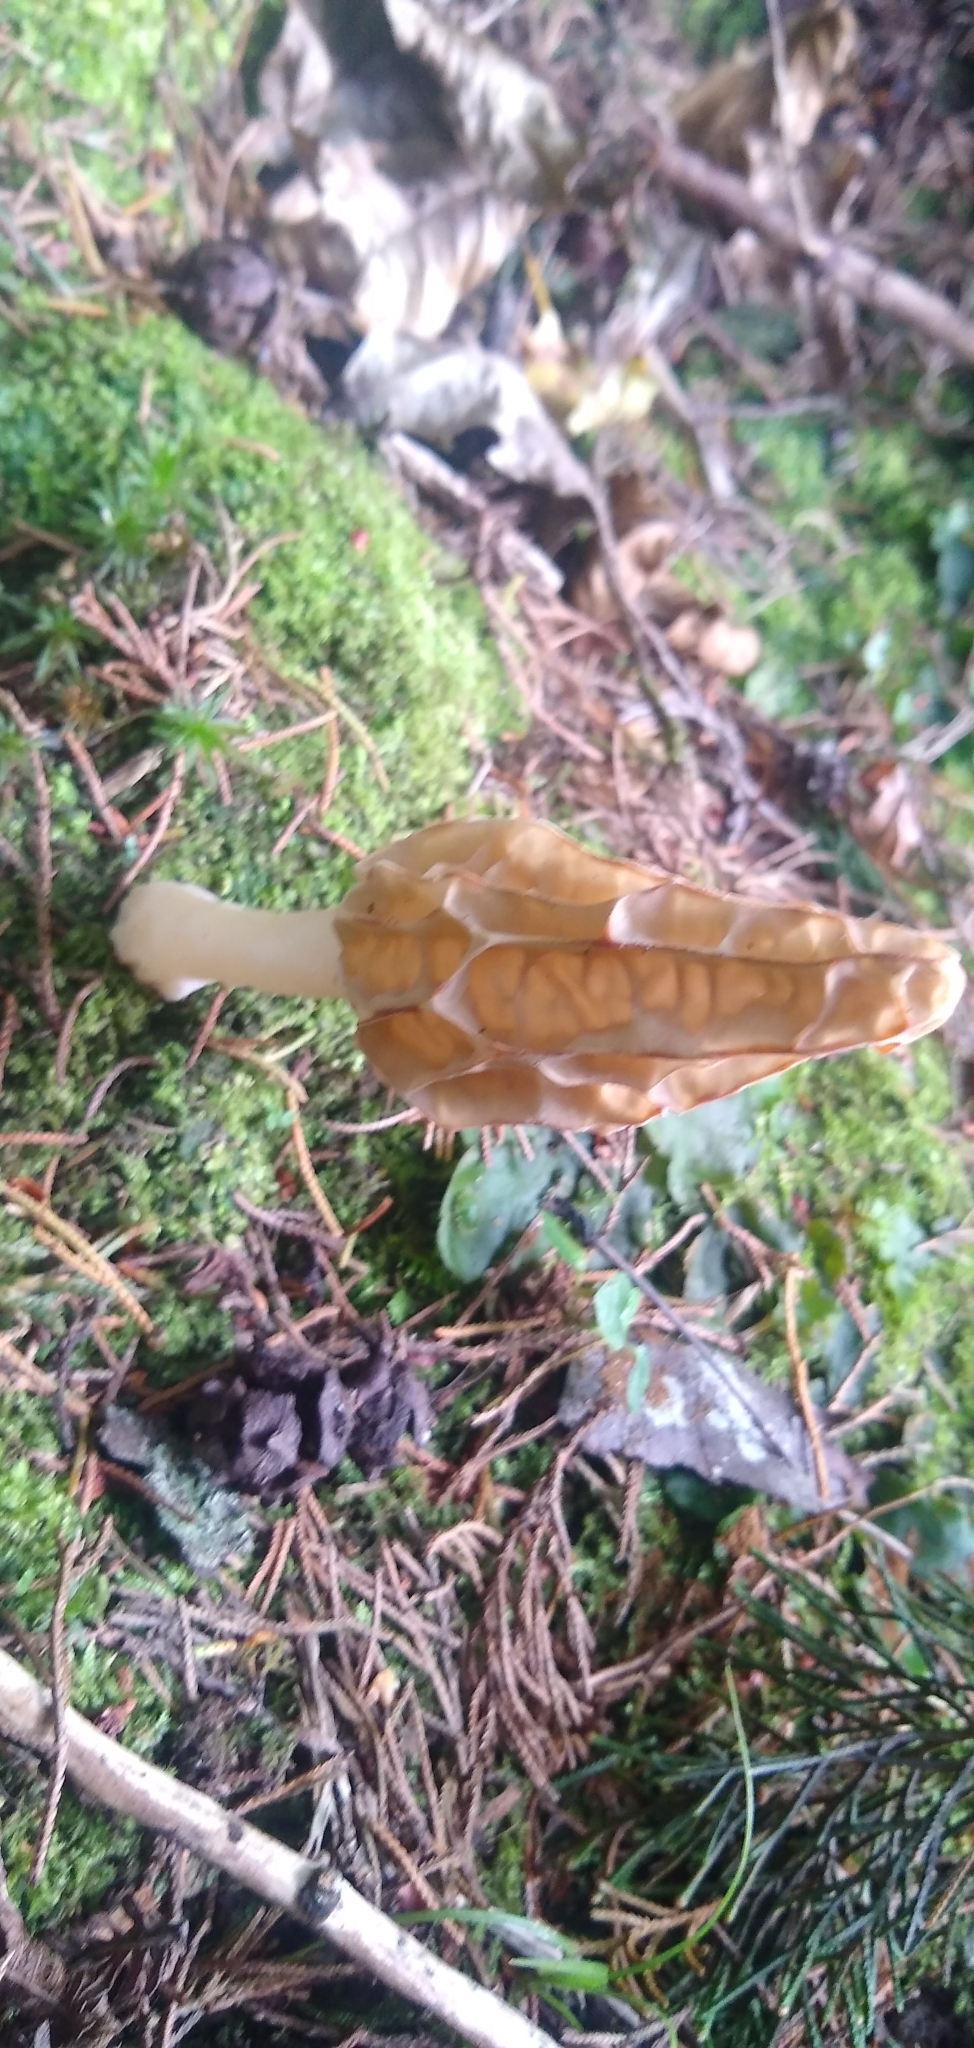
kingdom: Fungi
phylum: Ascomycota
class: Pezizomycetes
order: Pezizales
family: Morchellaceae
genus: Morchella
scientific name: Morchella herediana
